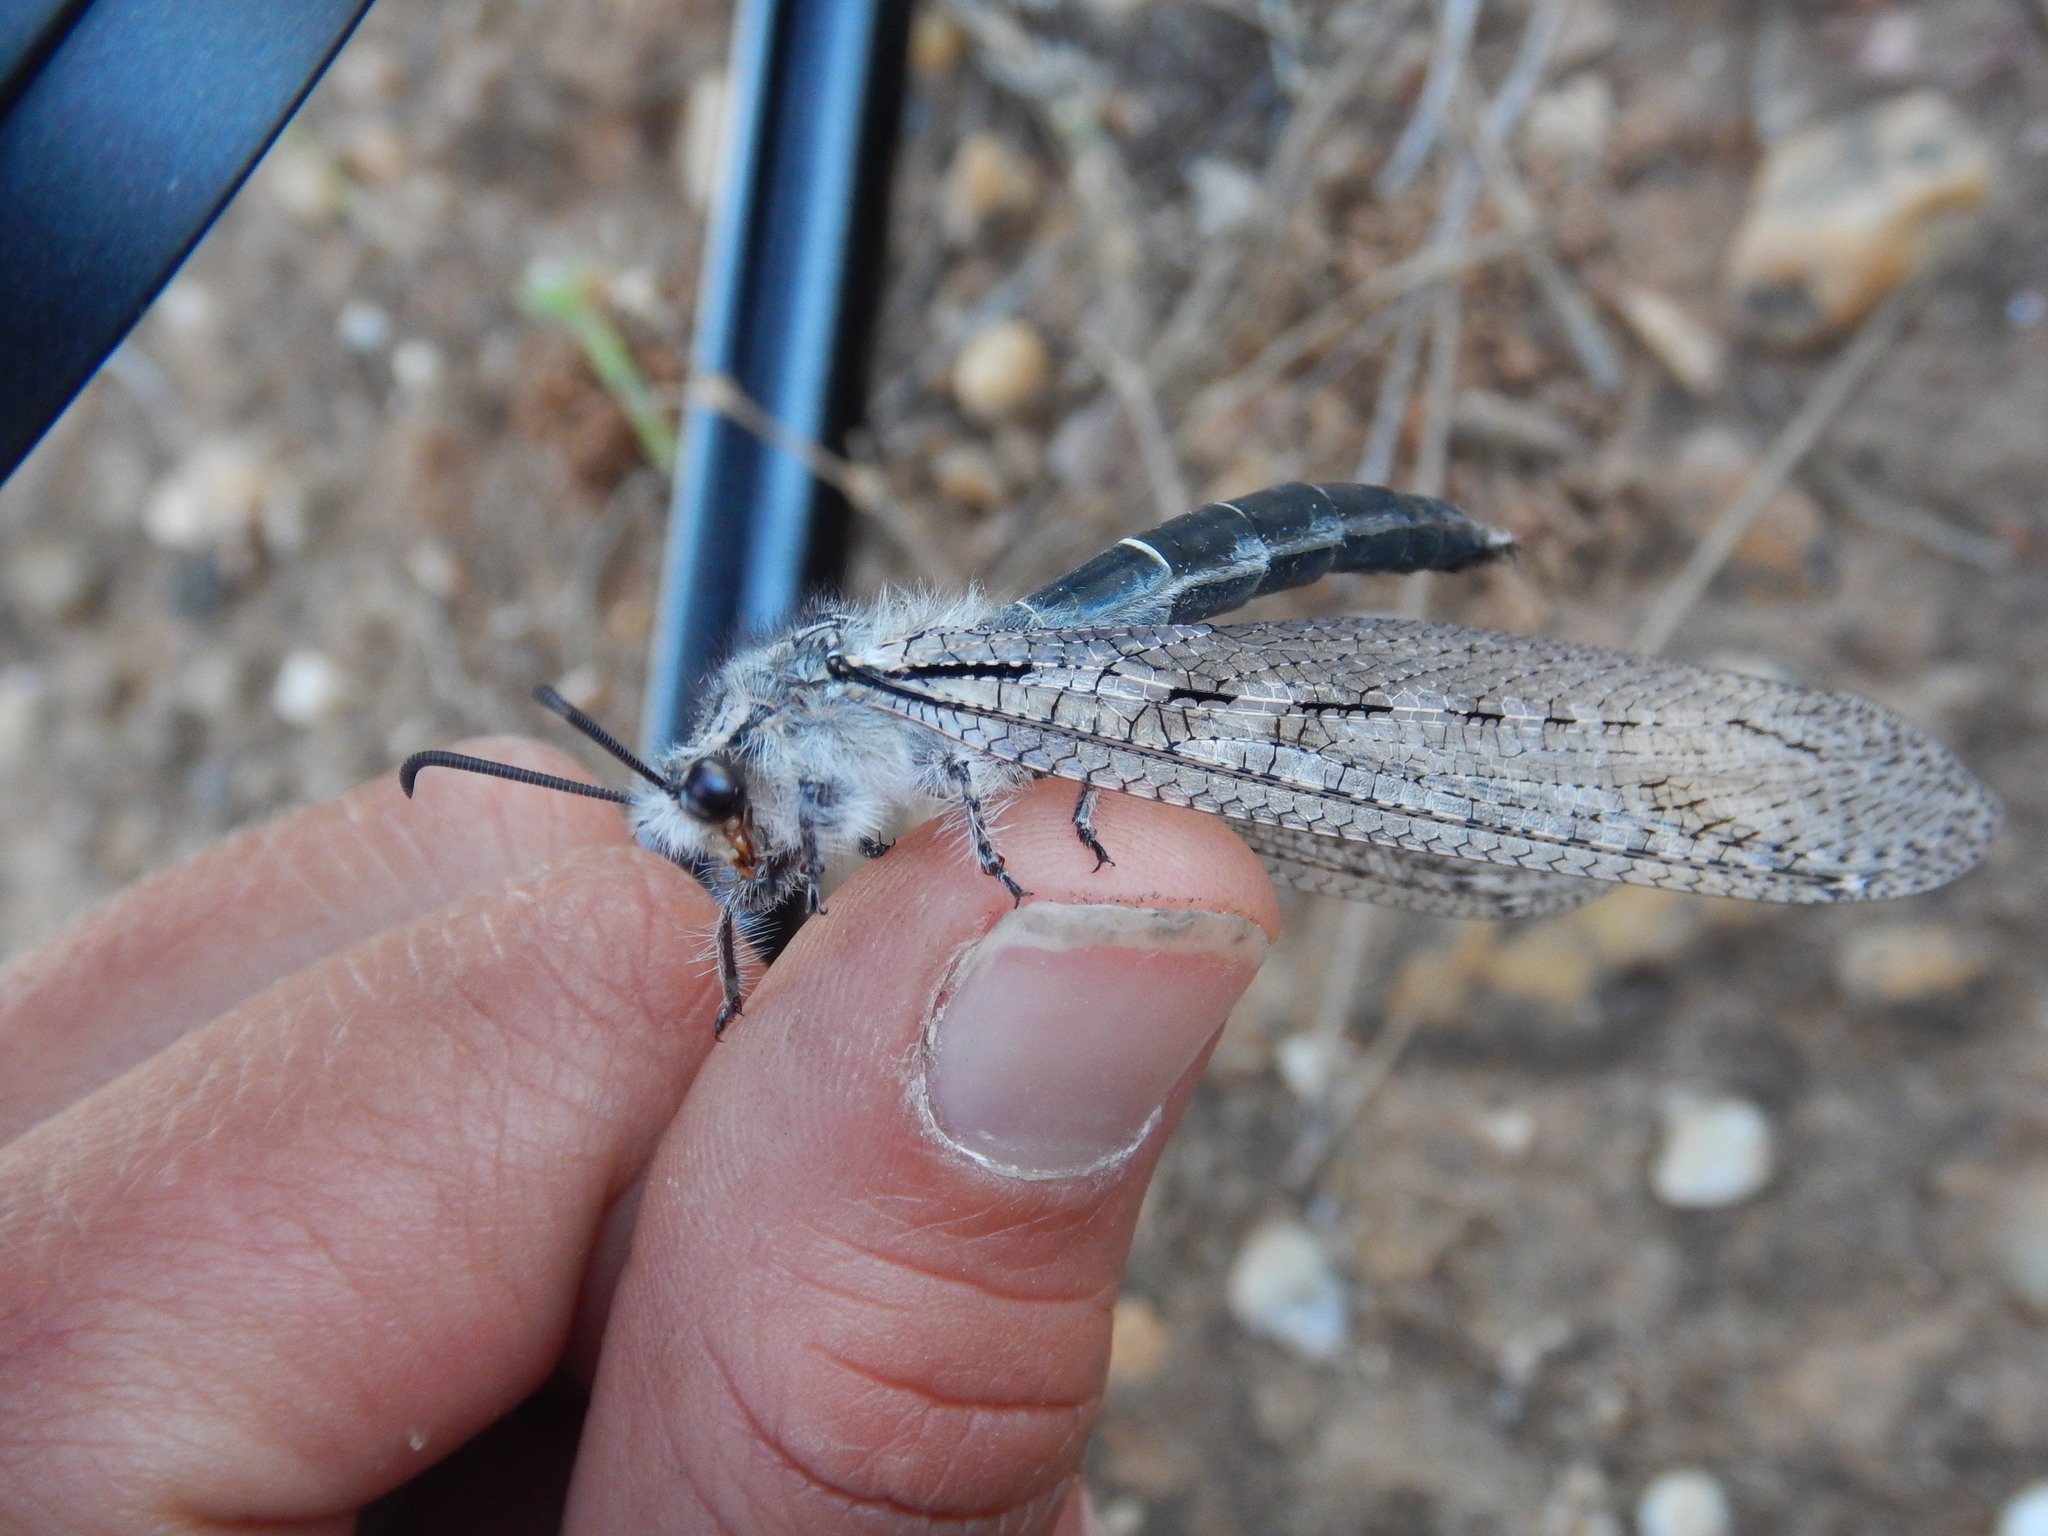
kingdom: Animalia
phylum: Arthropoda
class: Insecta
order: Neuroptera
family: Myrmeleontidae
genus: Acanthaclisis
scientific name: Acanthaclisis occitanica
